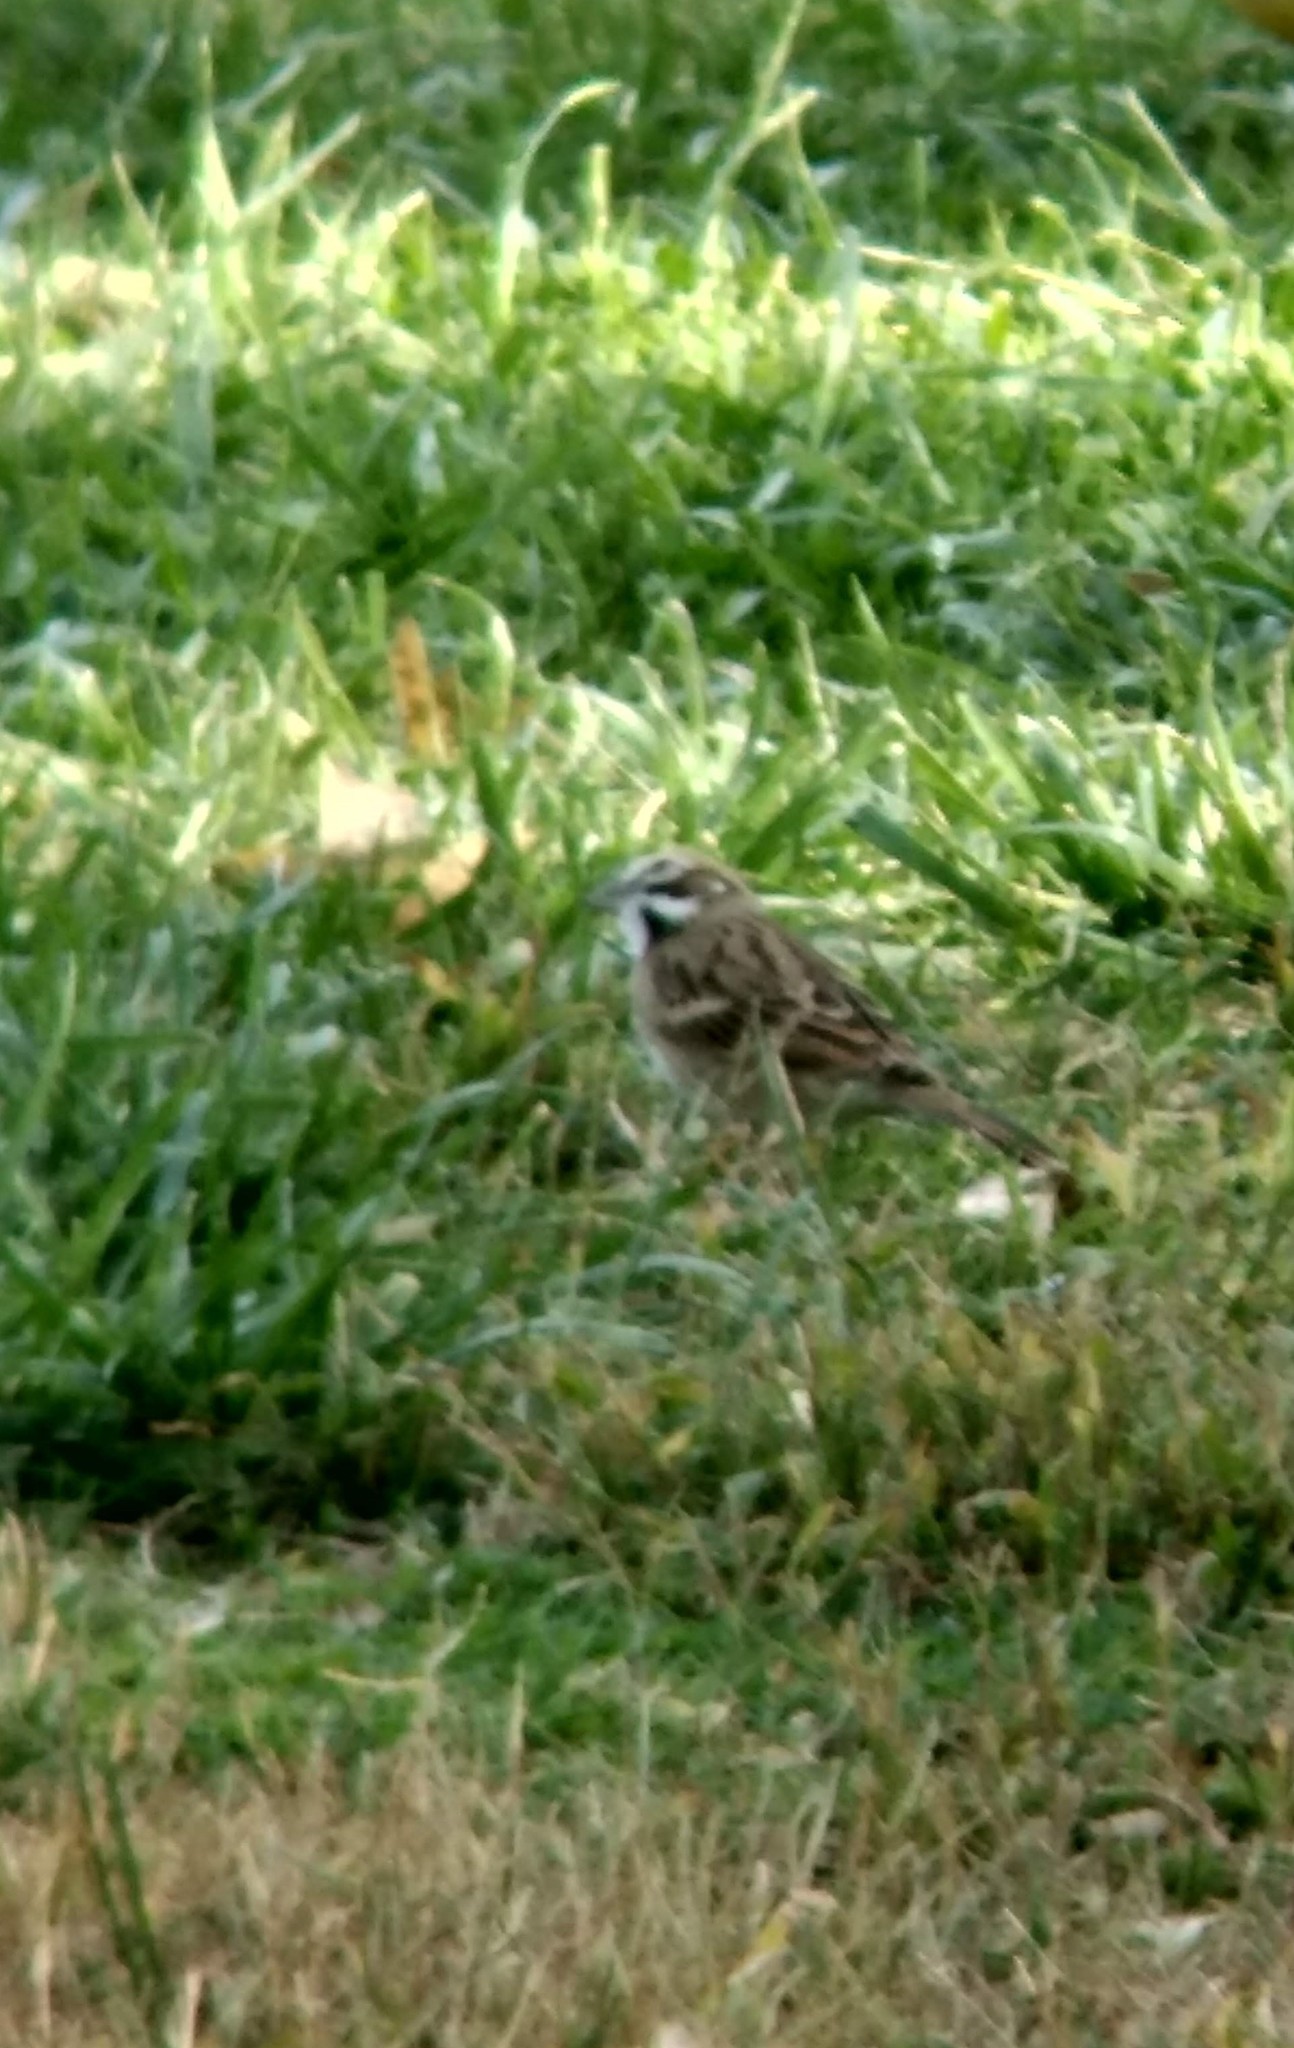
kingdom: Animalia
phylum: Chordata
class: Aves
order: Passeriformes
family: Passerellidae
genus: Chondestes
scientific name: Chondestes grammacus
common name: Lark sparrow
